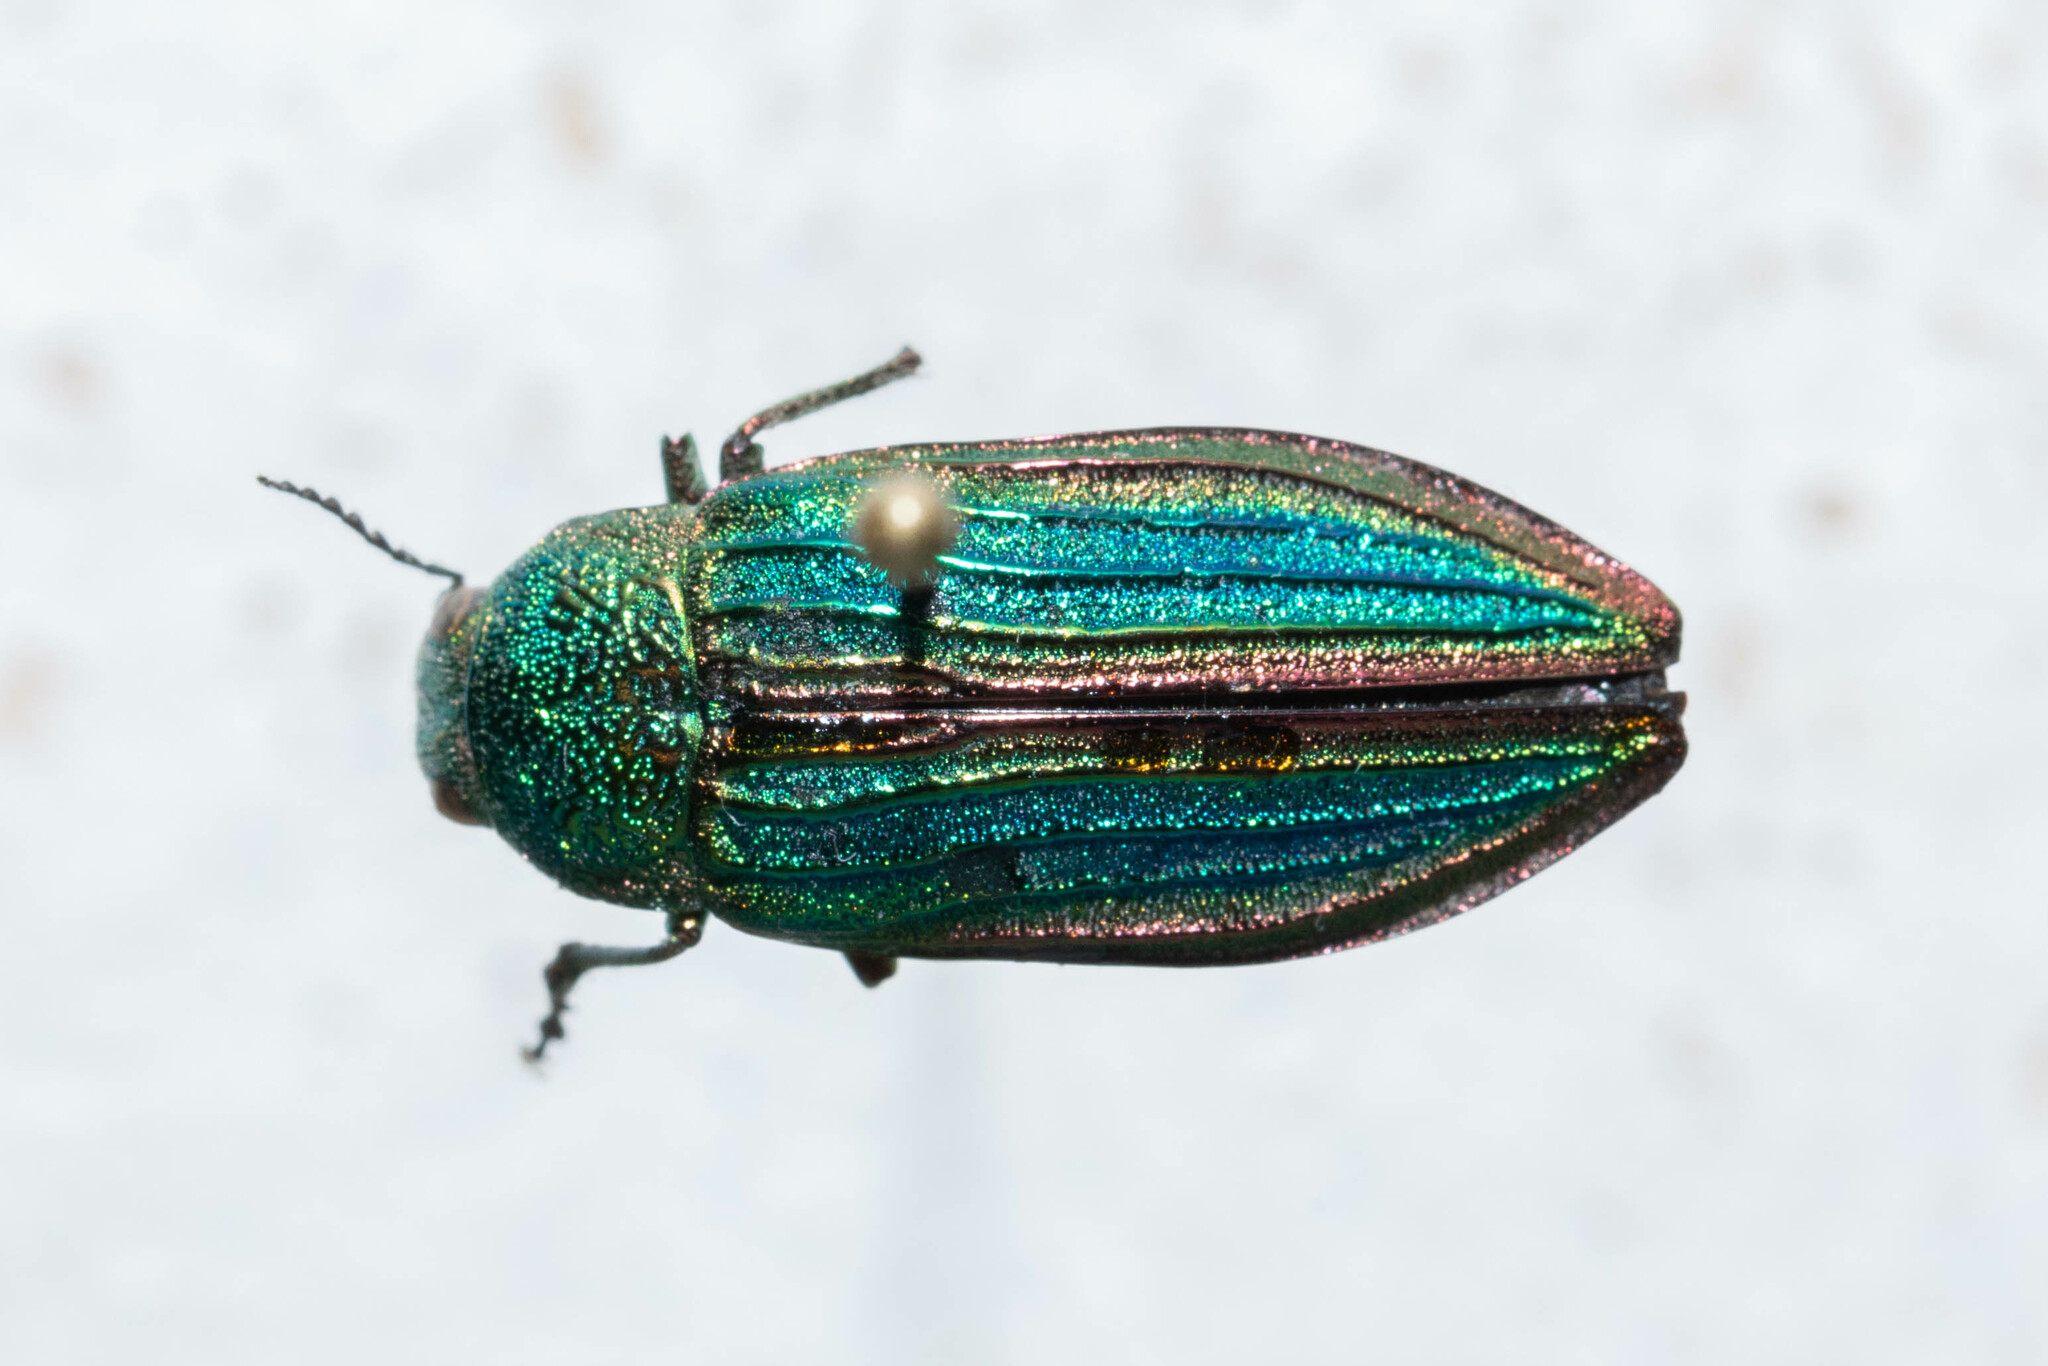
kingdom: Animalia
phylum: Arthropoda
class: Insecta
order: Coleoptera
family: Buprestidae
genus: Buprestis
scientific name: Buprestis aurulenta
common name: Golden buprestid
